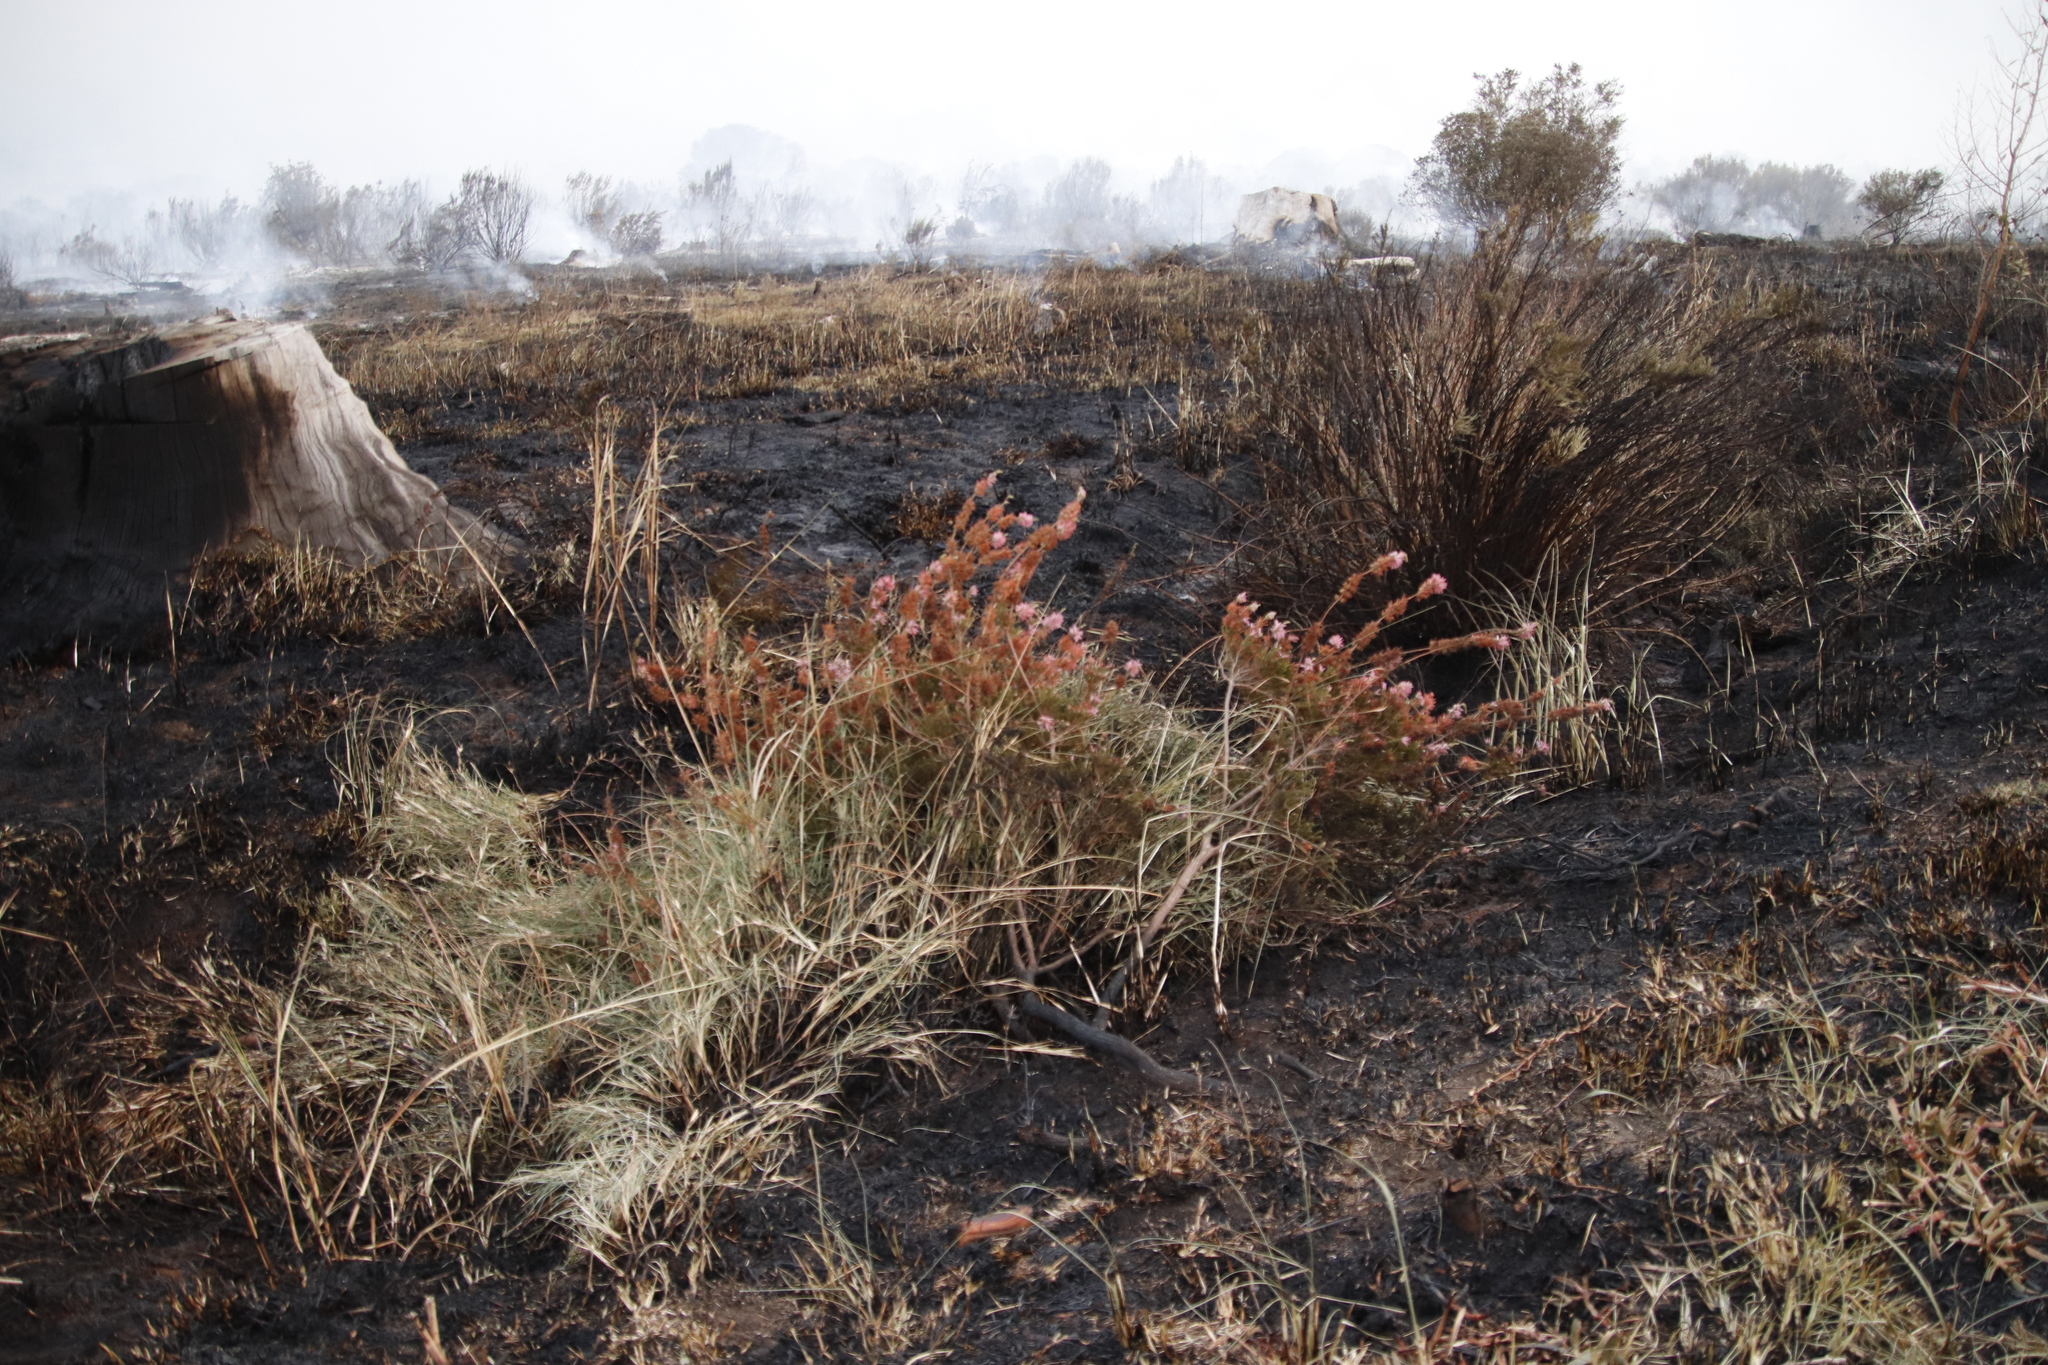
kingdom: Plantae
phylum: Tracheophyta
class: Magnoliopsida
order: Ericales
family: Ericaceae
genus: Erica
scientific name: Erica verticillata
